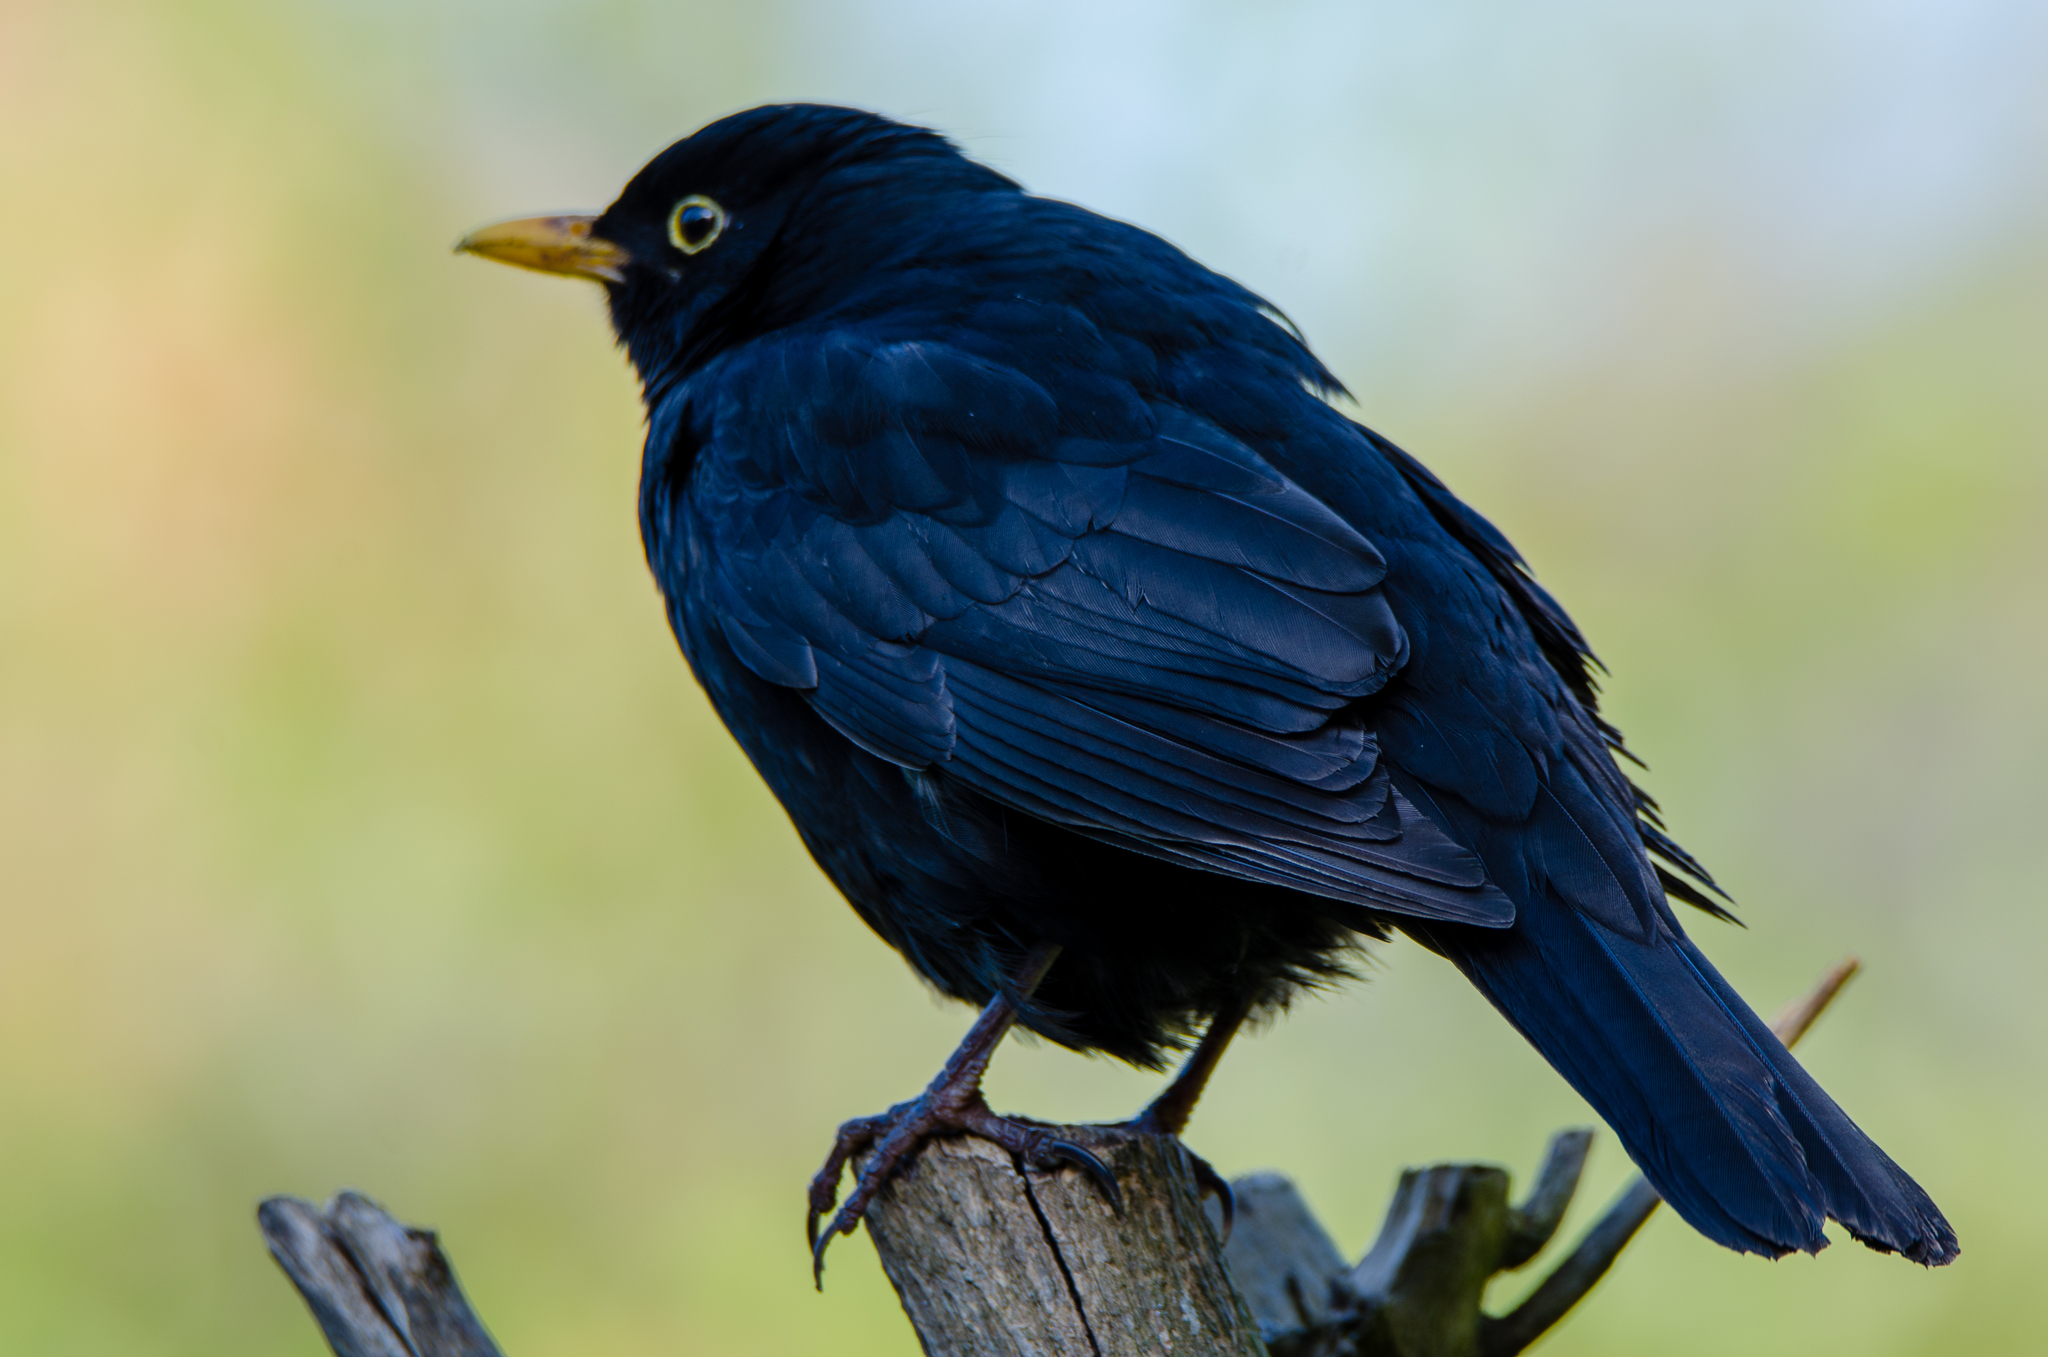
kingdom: Animalia
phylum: Chordata
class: Aves
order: Passeriformes
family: Turdidae
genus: Turdus
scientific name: Turdus merula
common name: Common blackbird
